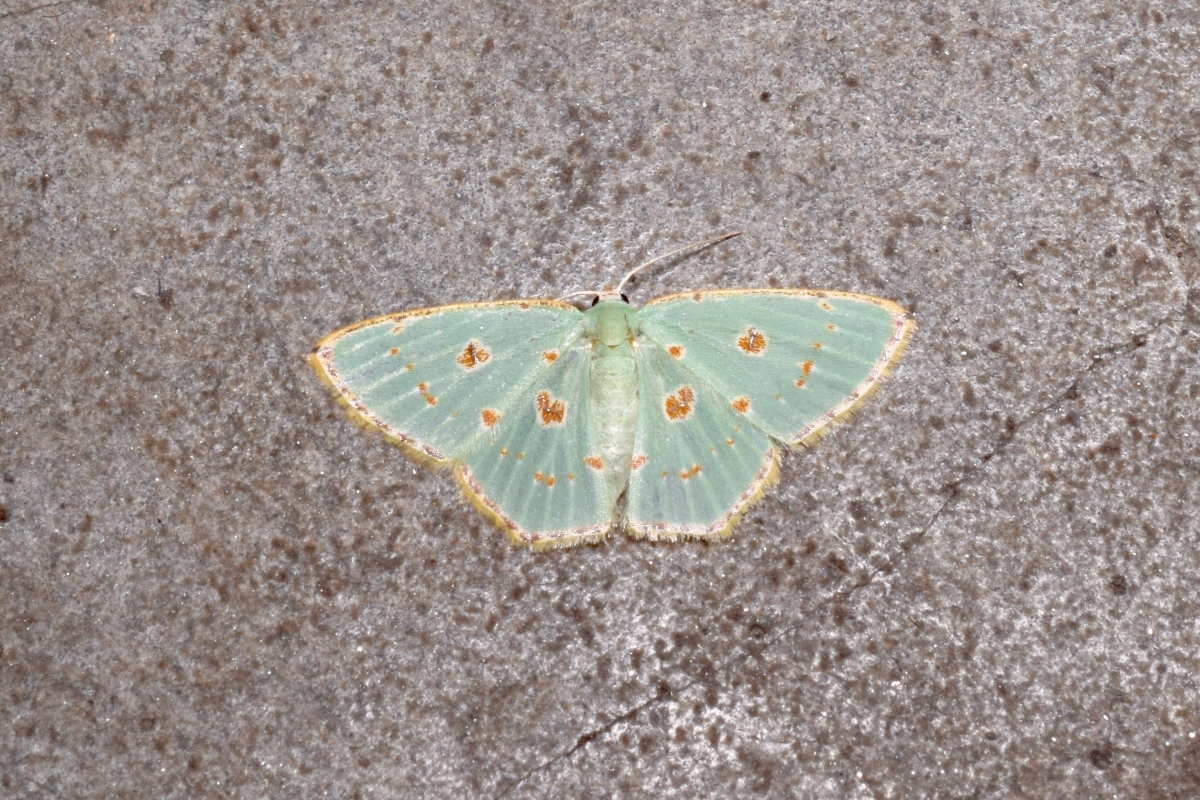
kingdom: Animalia
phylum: Arthropoda
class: Insecta
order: Lepidoptera
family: Geometridae
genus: Comostola
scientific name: Comostola laesaria
